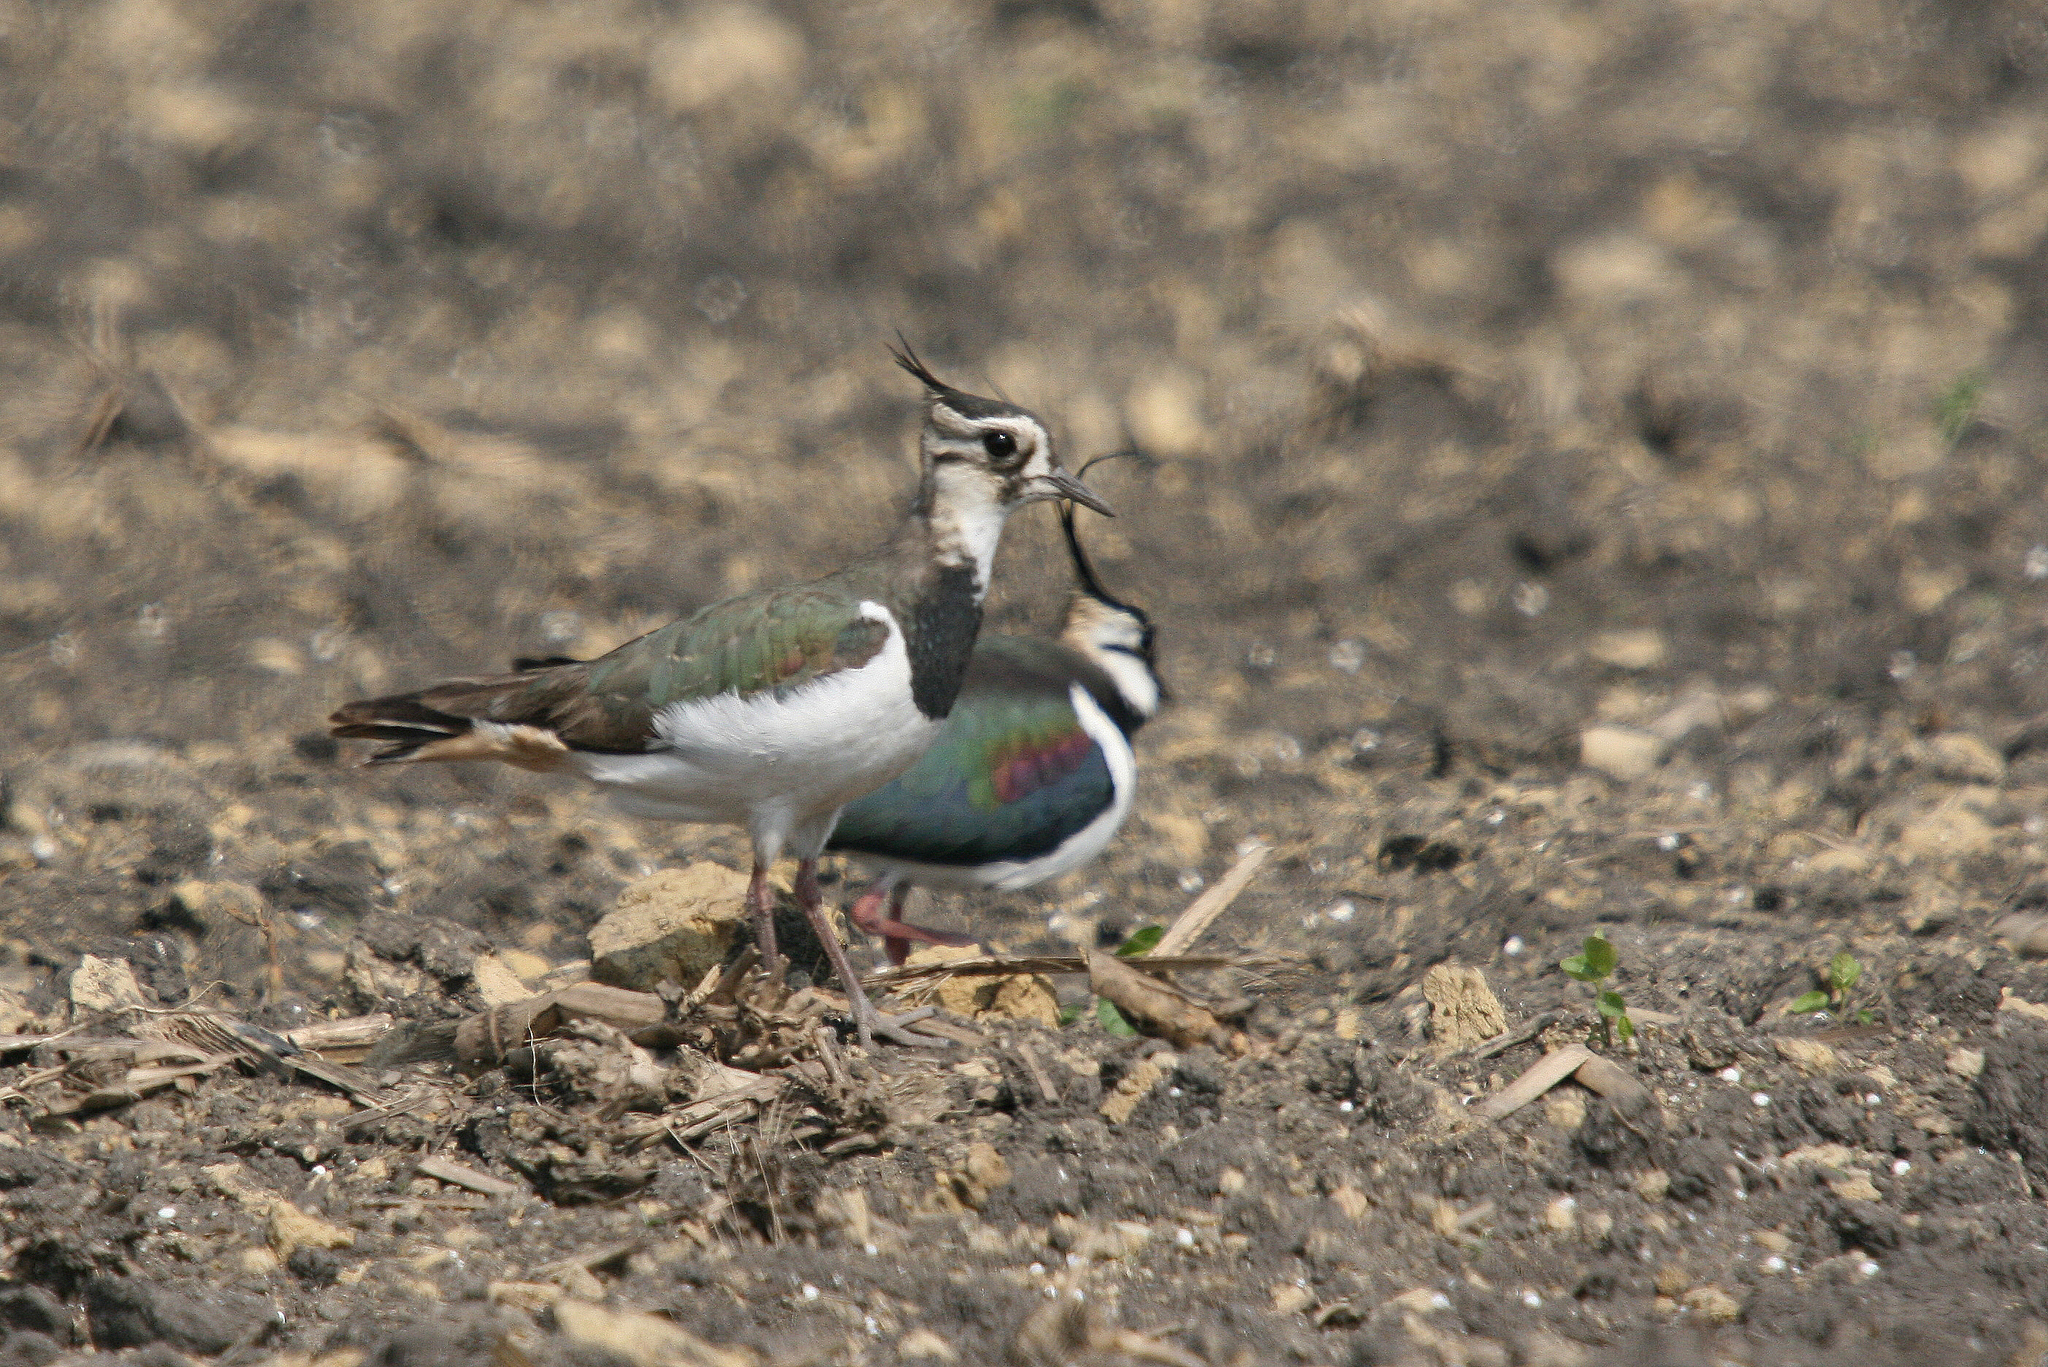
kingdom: Animalia
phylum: Chordata
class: Aves
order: Charadriiformes
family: Charadriidae
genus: Vanellus
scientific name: Vanellus vanellus
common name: Northern lapwing
